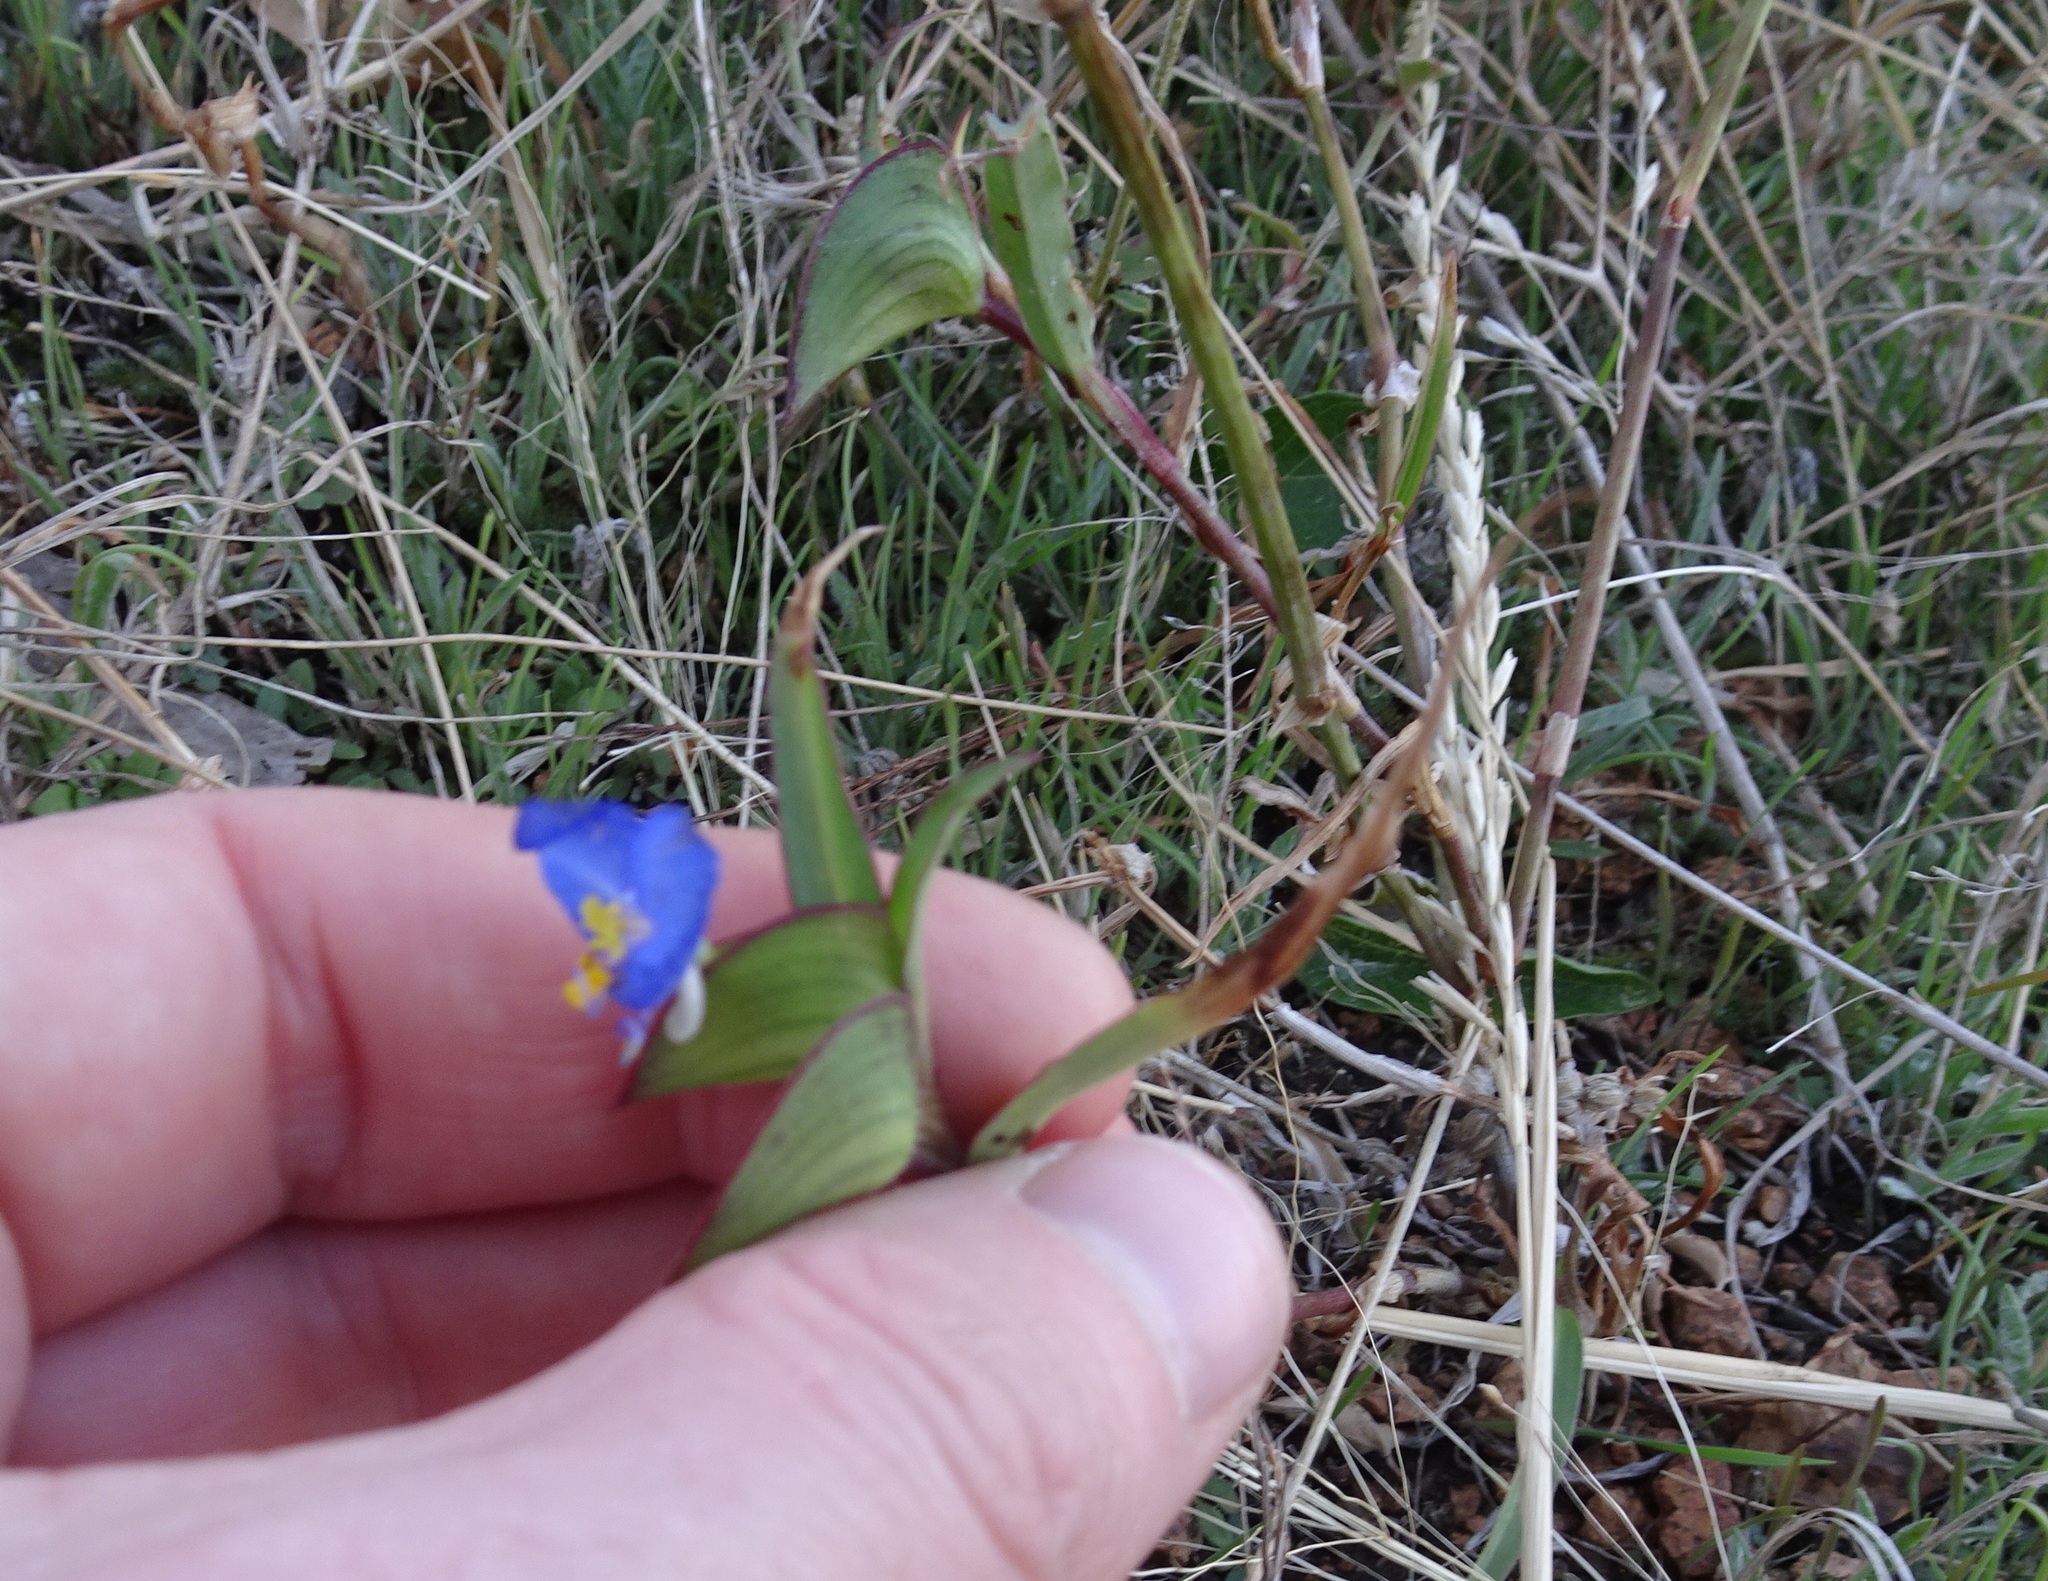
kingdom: Plantae
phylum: Tracheophyta
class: Liliopsida
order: Commelinales
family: Commelinaceae
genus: Commelina
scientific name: Commelina erecta
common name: Blousel blommetjie
